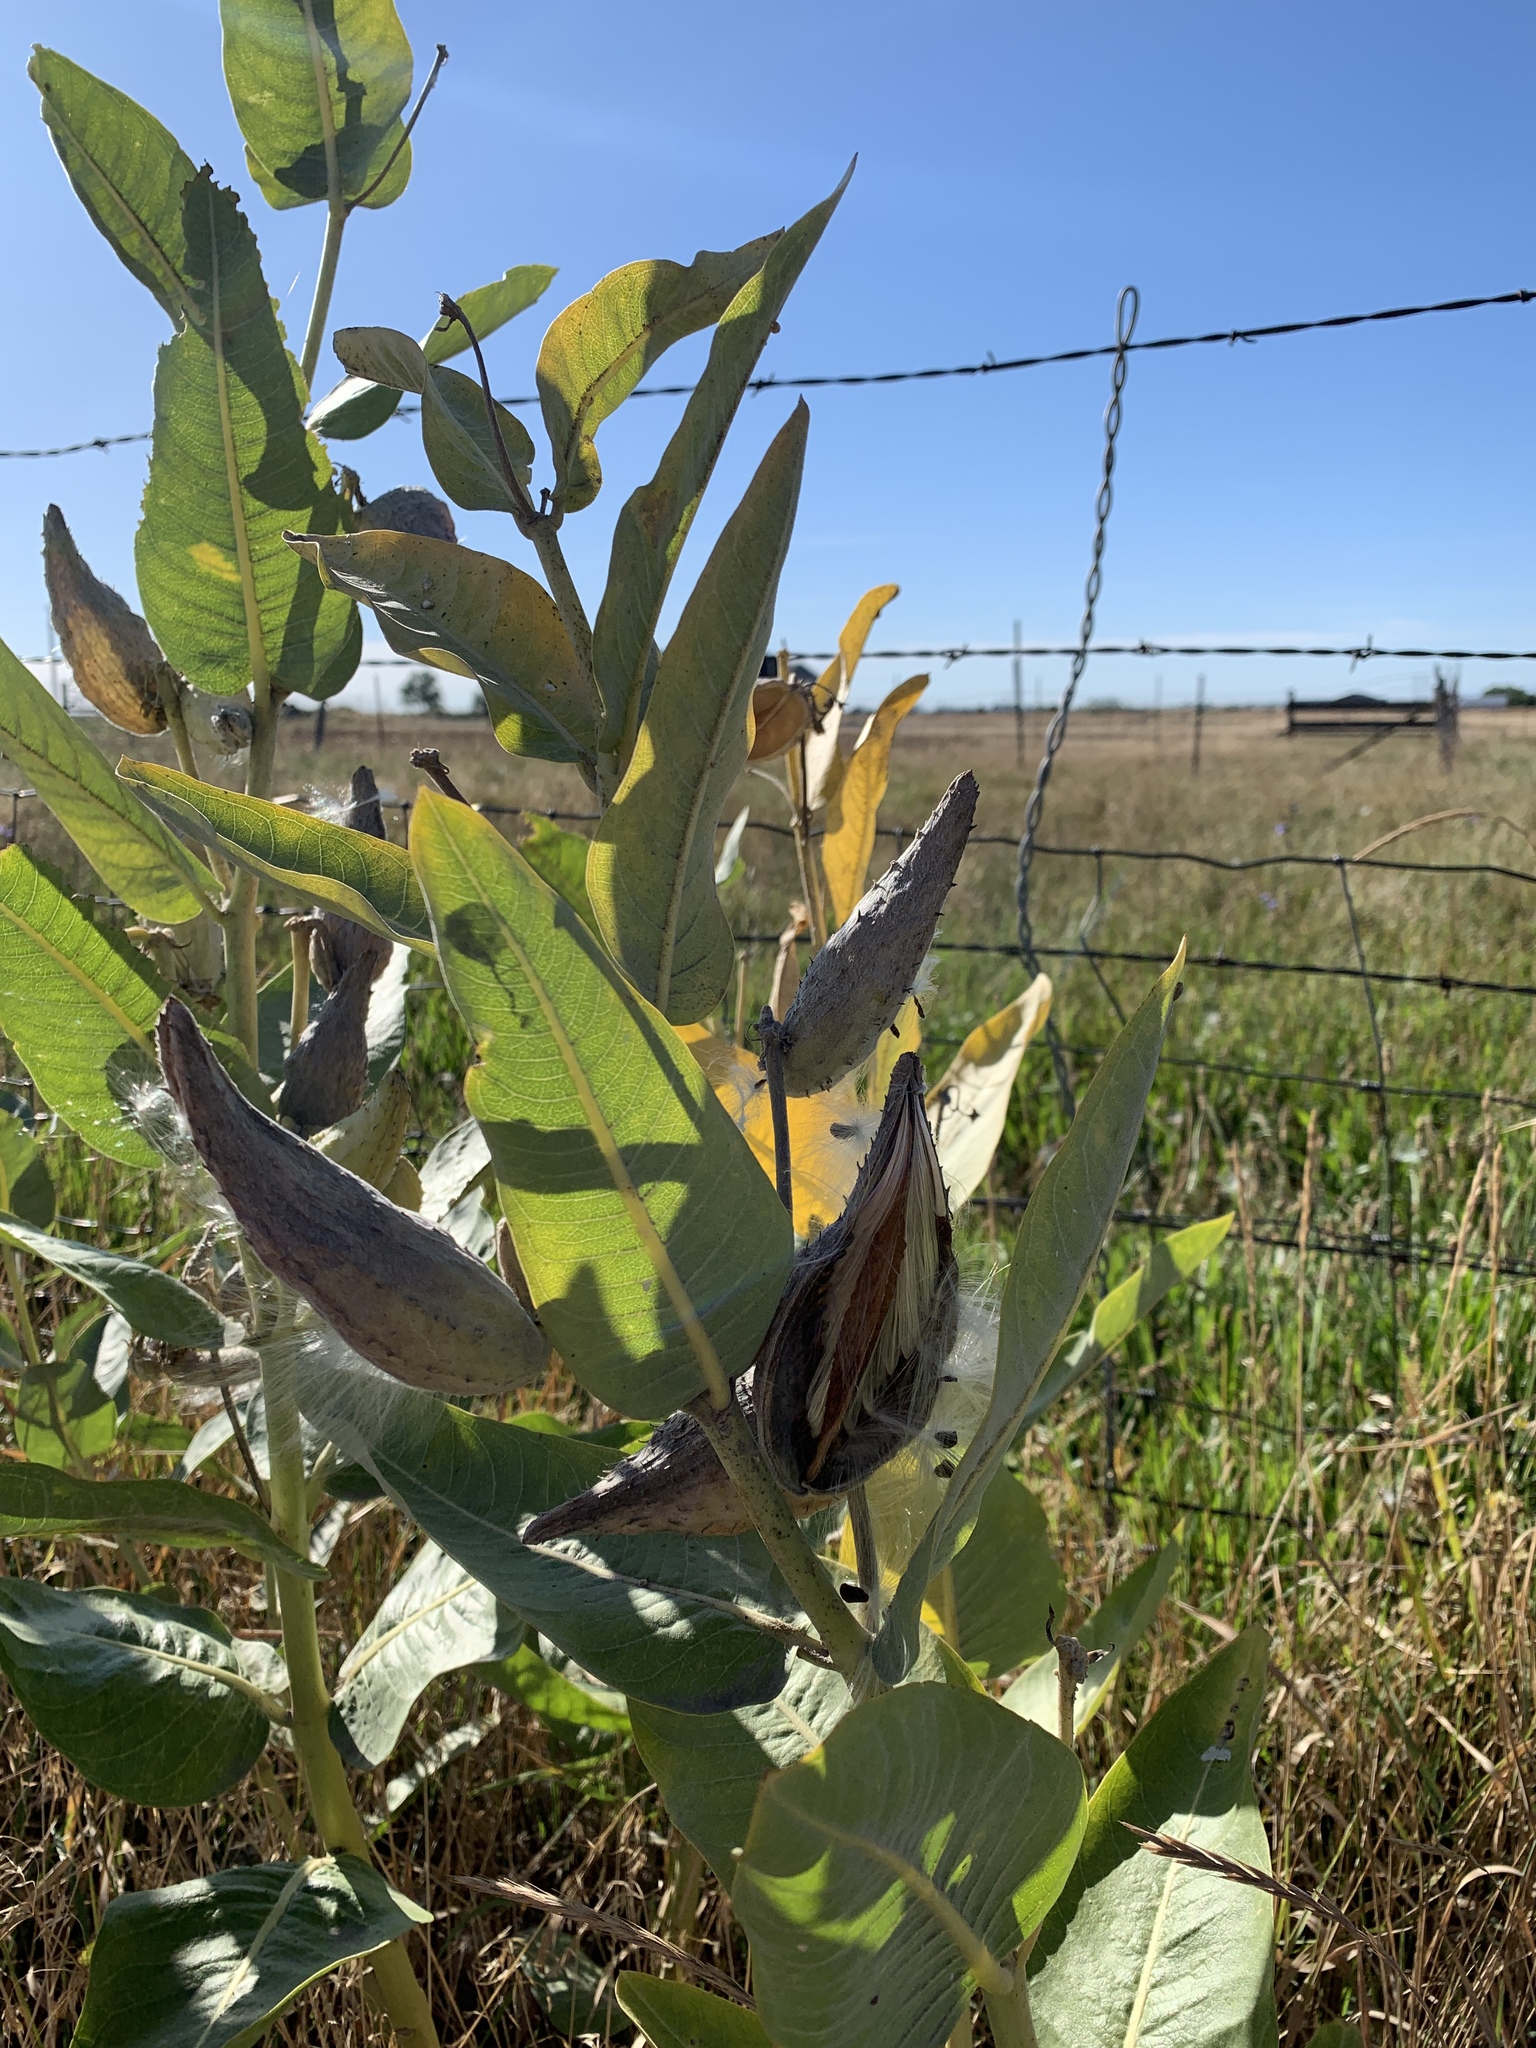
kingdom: Plantae
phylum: Tracheophyta
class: Magnoliopsida
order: Gentianales
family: Apocynaceae
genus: Asclepias
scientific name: Asclepias speciosa
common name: Showy milkweed
